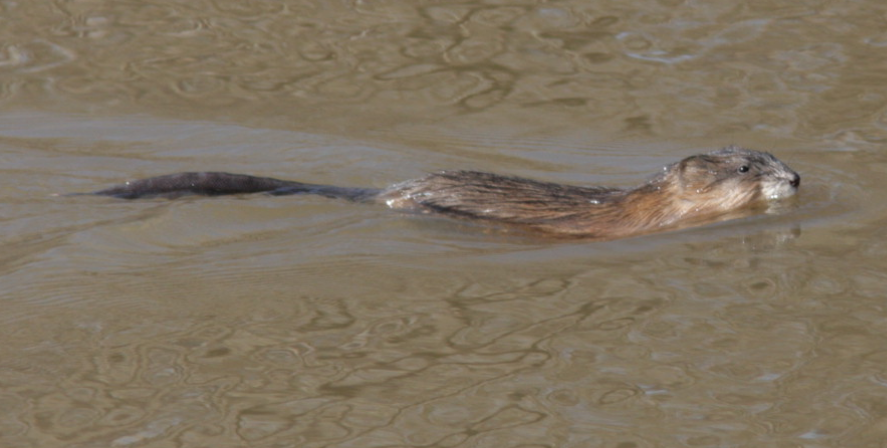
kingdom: Animalia
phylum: Chordata
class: Mammalia
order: Rodentia
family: Cricetidae
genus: Ondatra
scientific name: Ondatra zibethicus
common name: Muskrat
